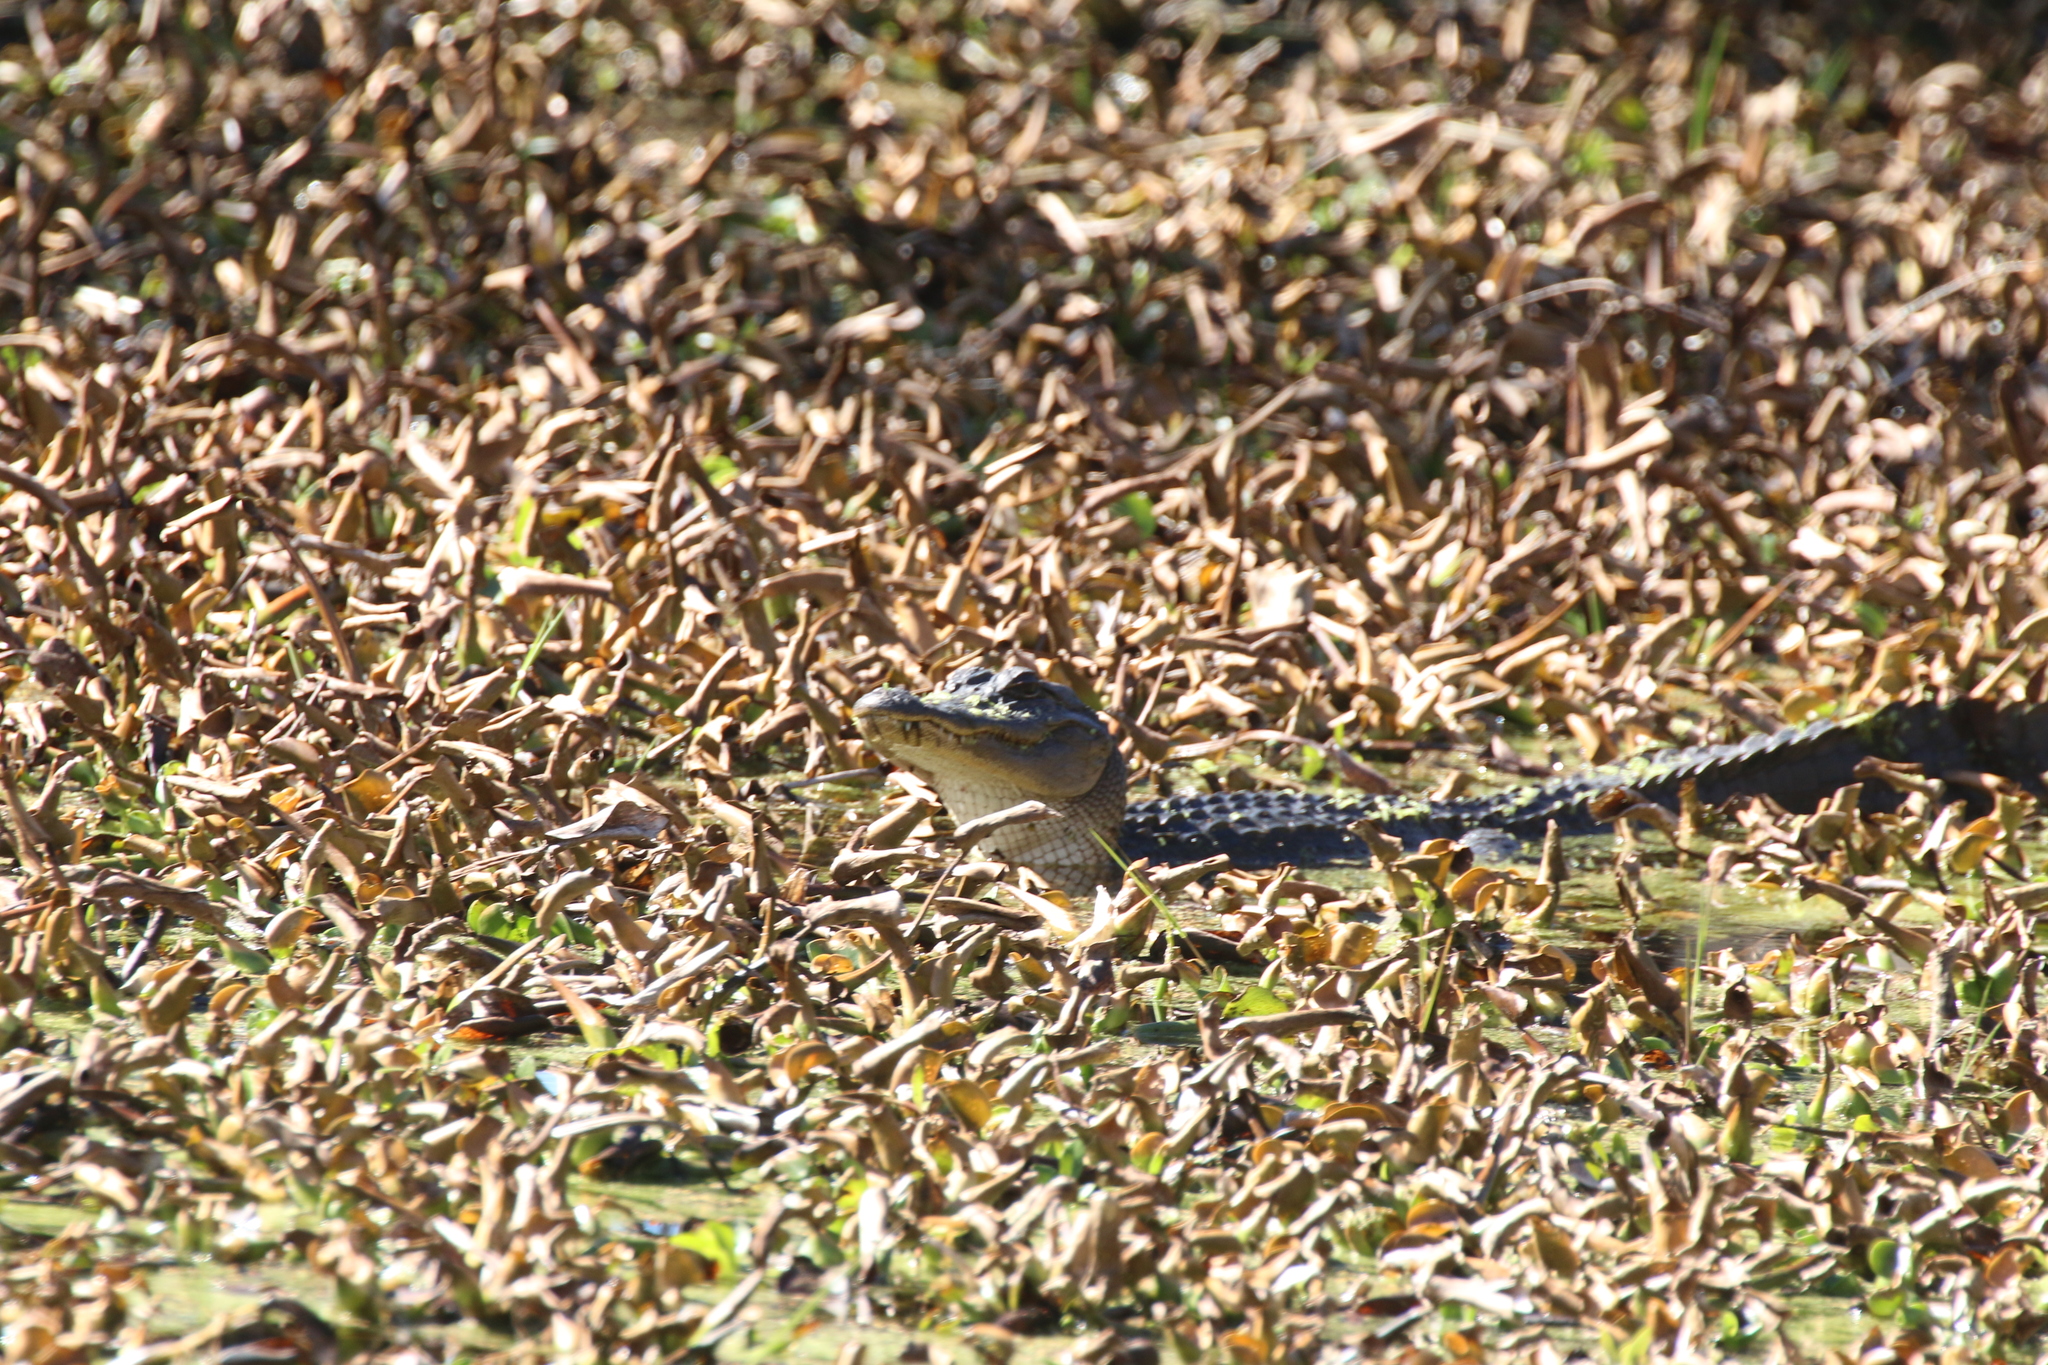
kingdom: Animalia
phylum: Chordata
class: Crocodylia
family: Alligatoridae
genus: Alligator
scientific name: Alligator mississippiensis
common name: American alligator
